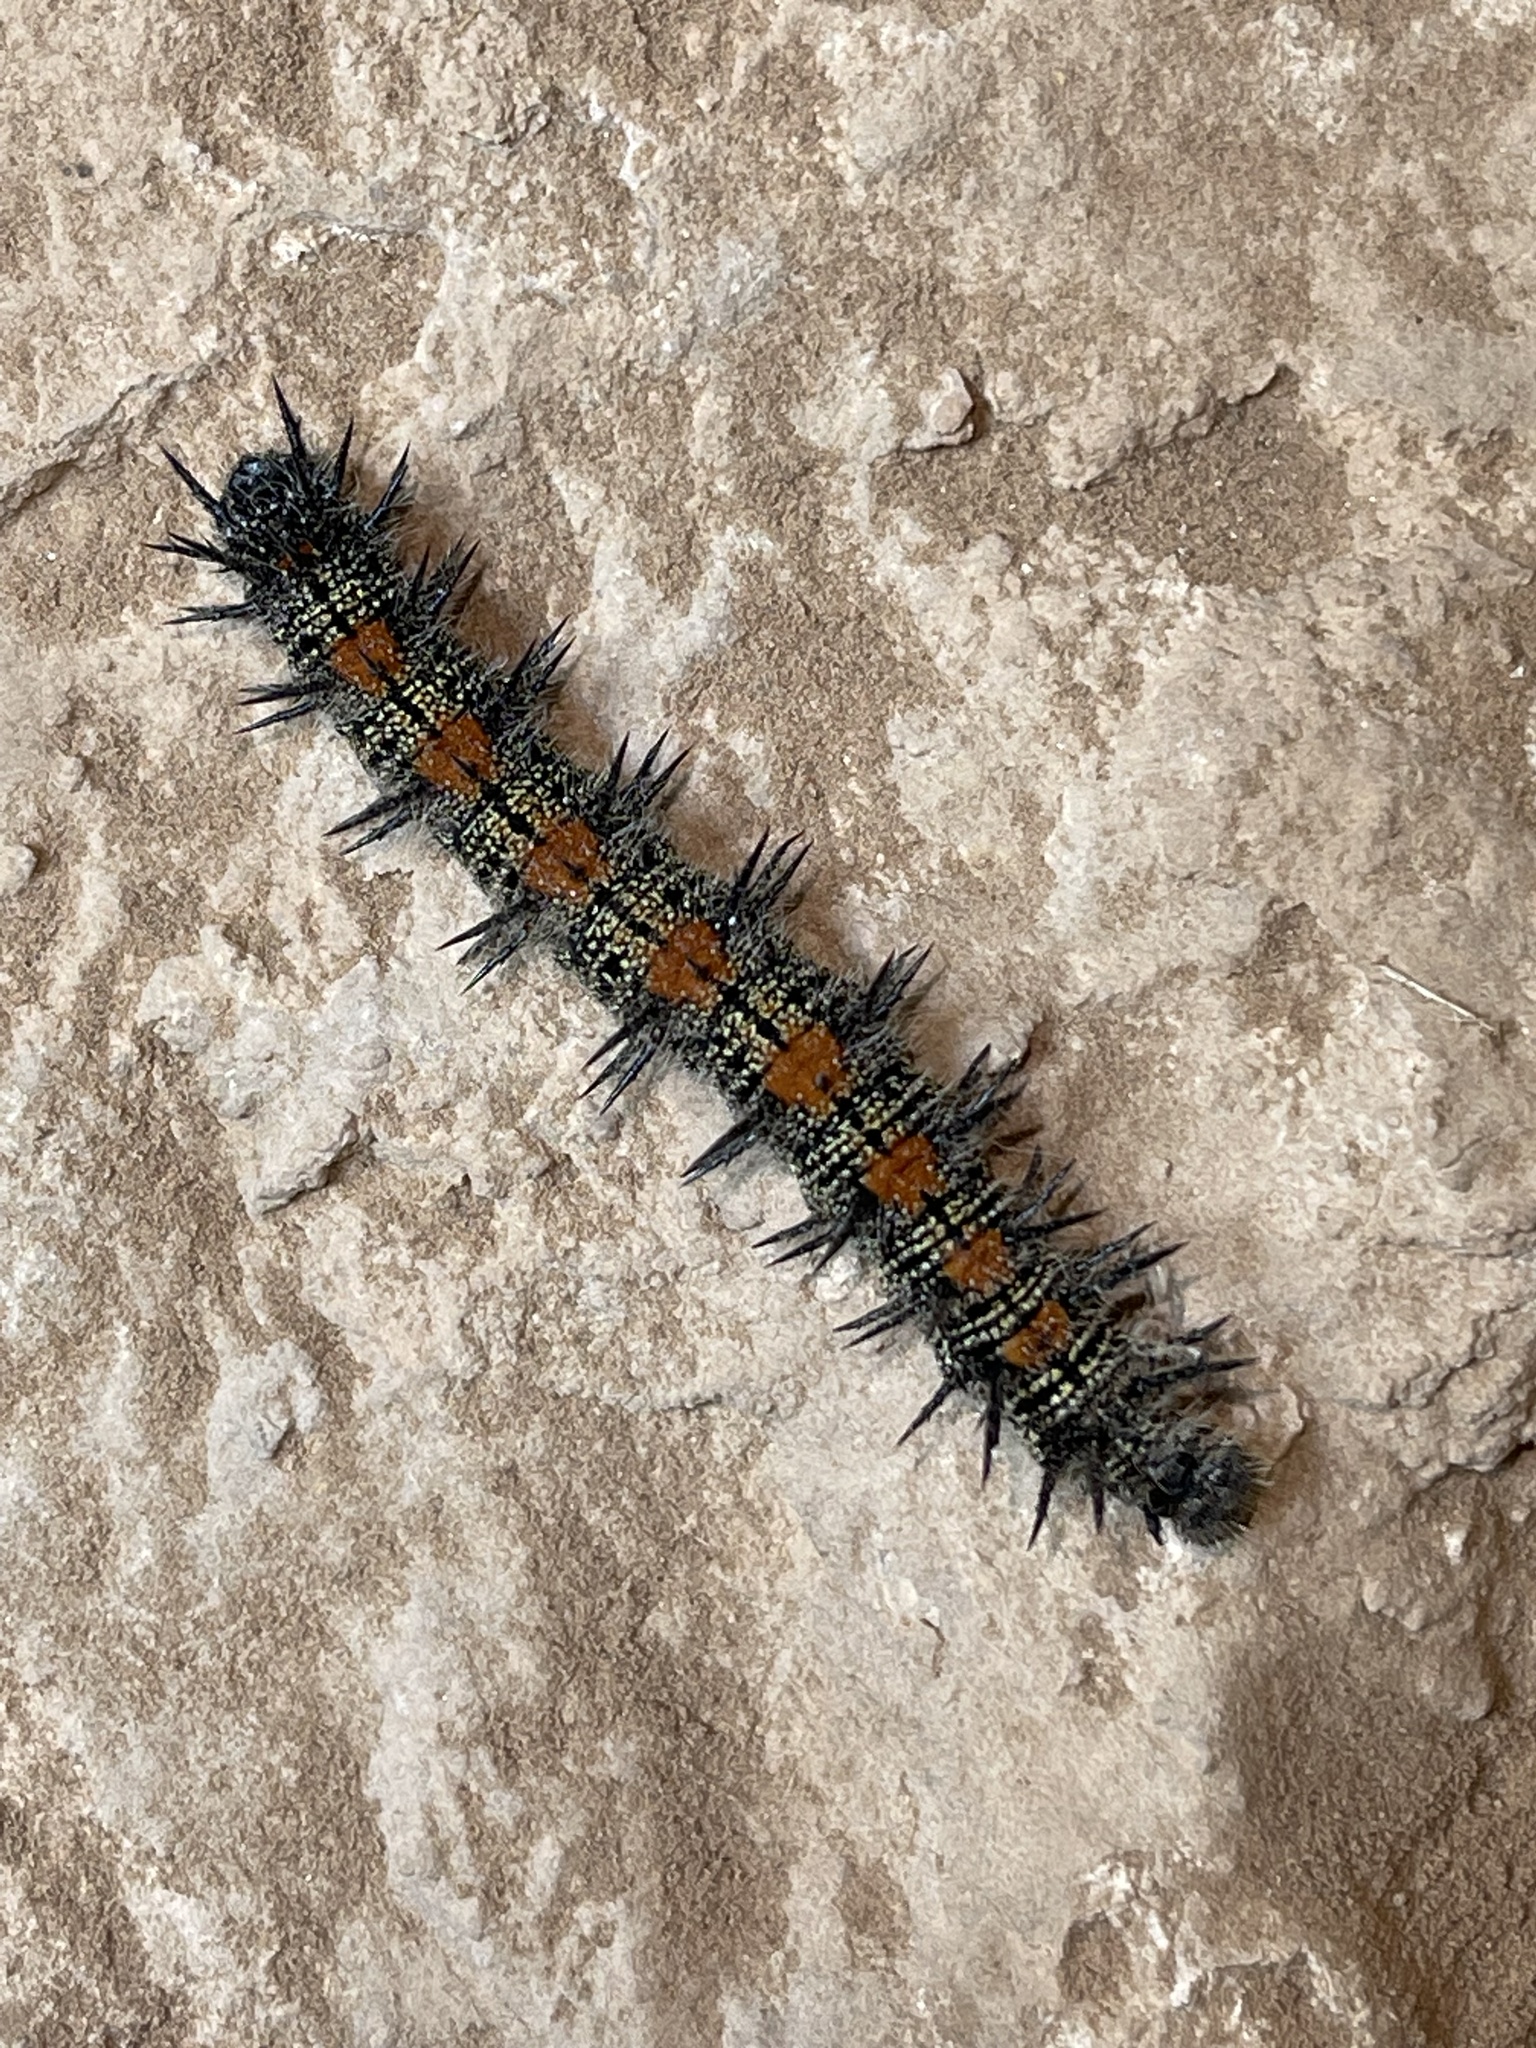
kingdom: Animalia
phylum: Arthropoda
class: Insecta
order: Lepidoptera
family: Nymphalidae
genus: Nymphalis
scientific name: Nymphalis antiopa
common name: Camberwell beauty
